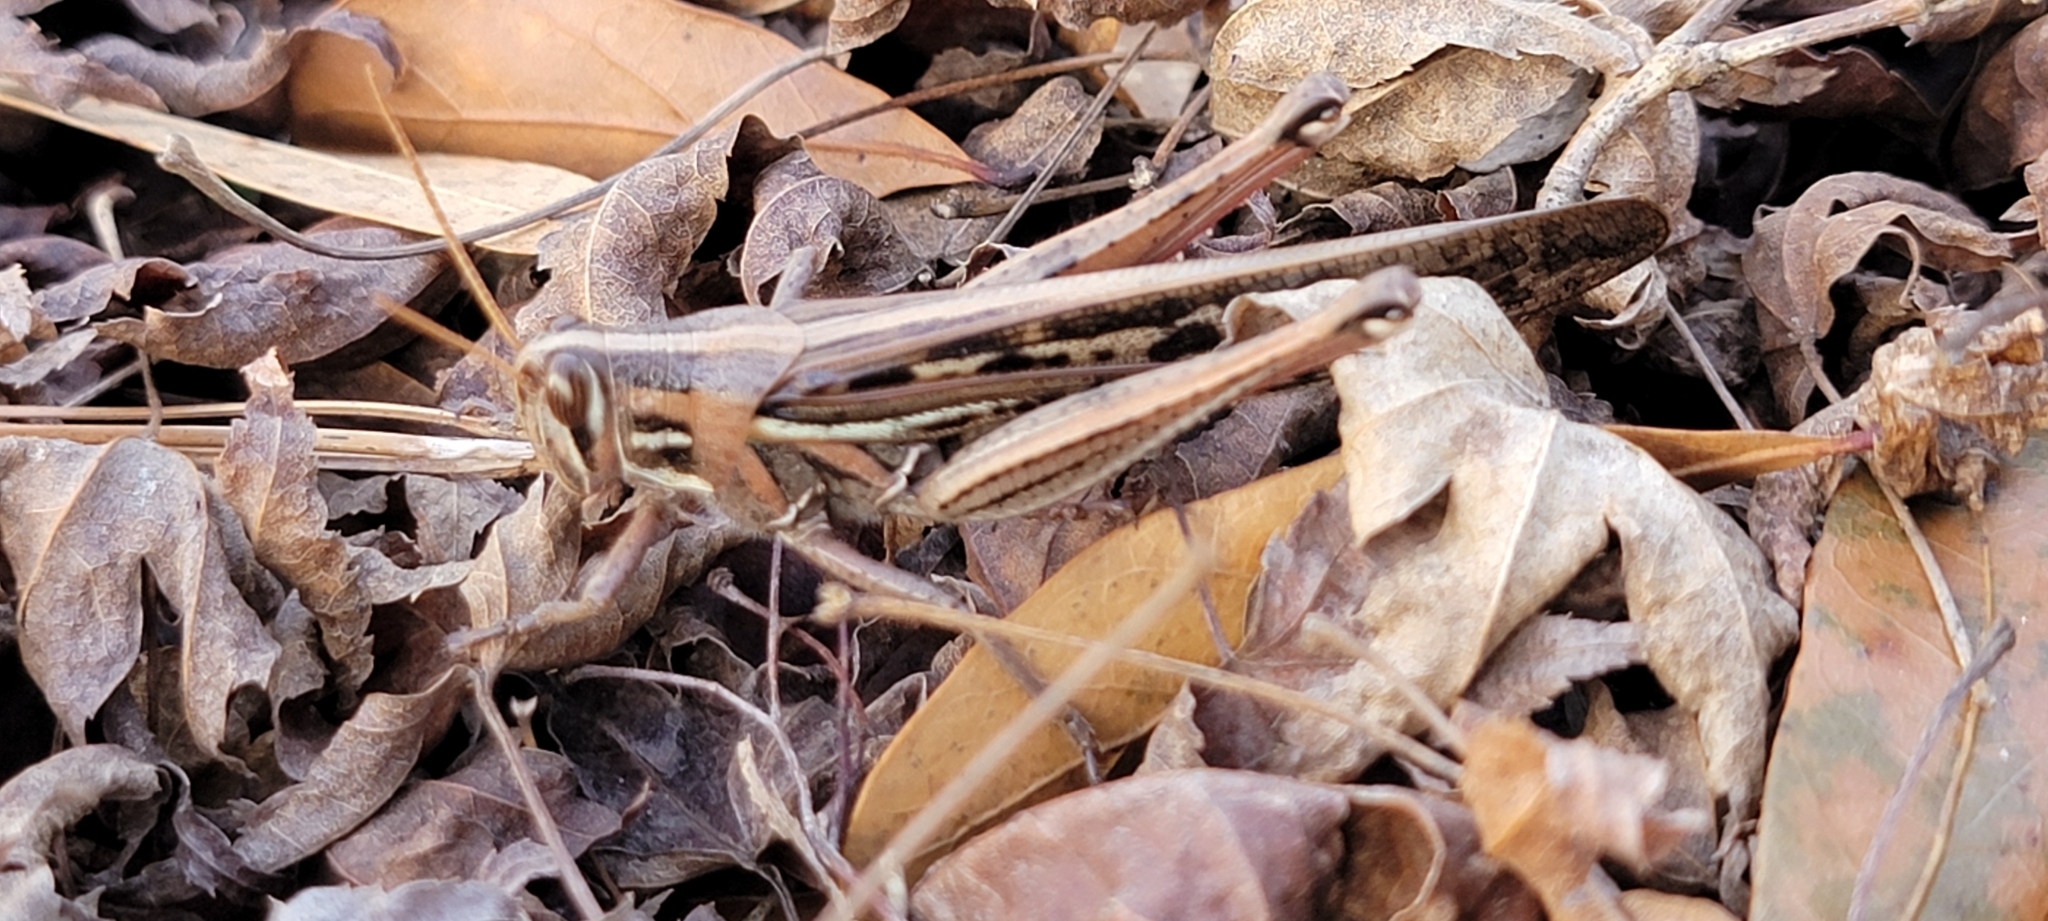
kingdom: Animalia
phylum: Arthropoda
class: Insecta
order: Orthoptera
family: Acrididae
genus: Schistocerca
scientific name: Schistocerca americana
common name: American bird locust
